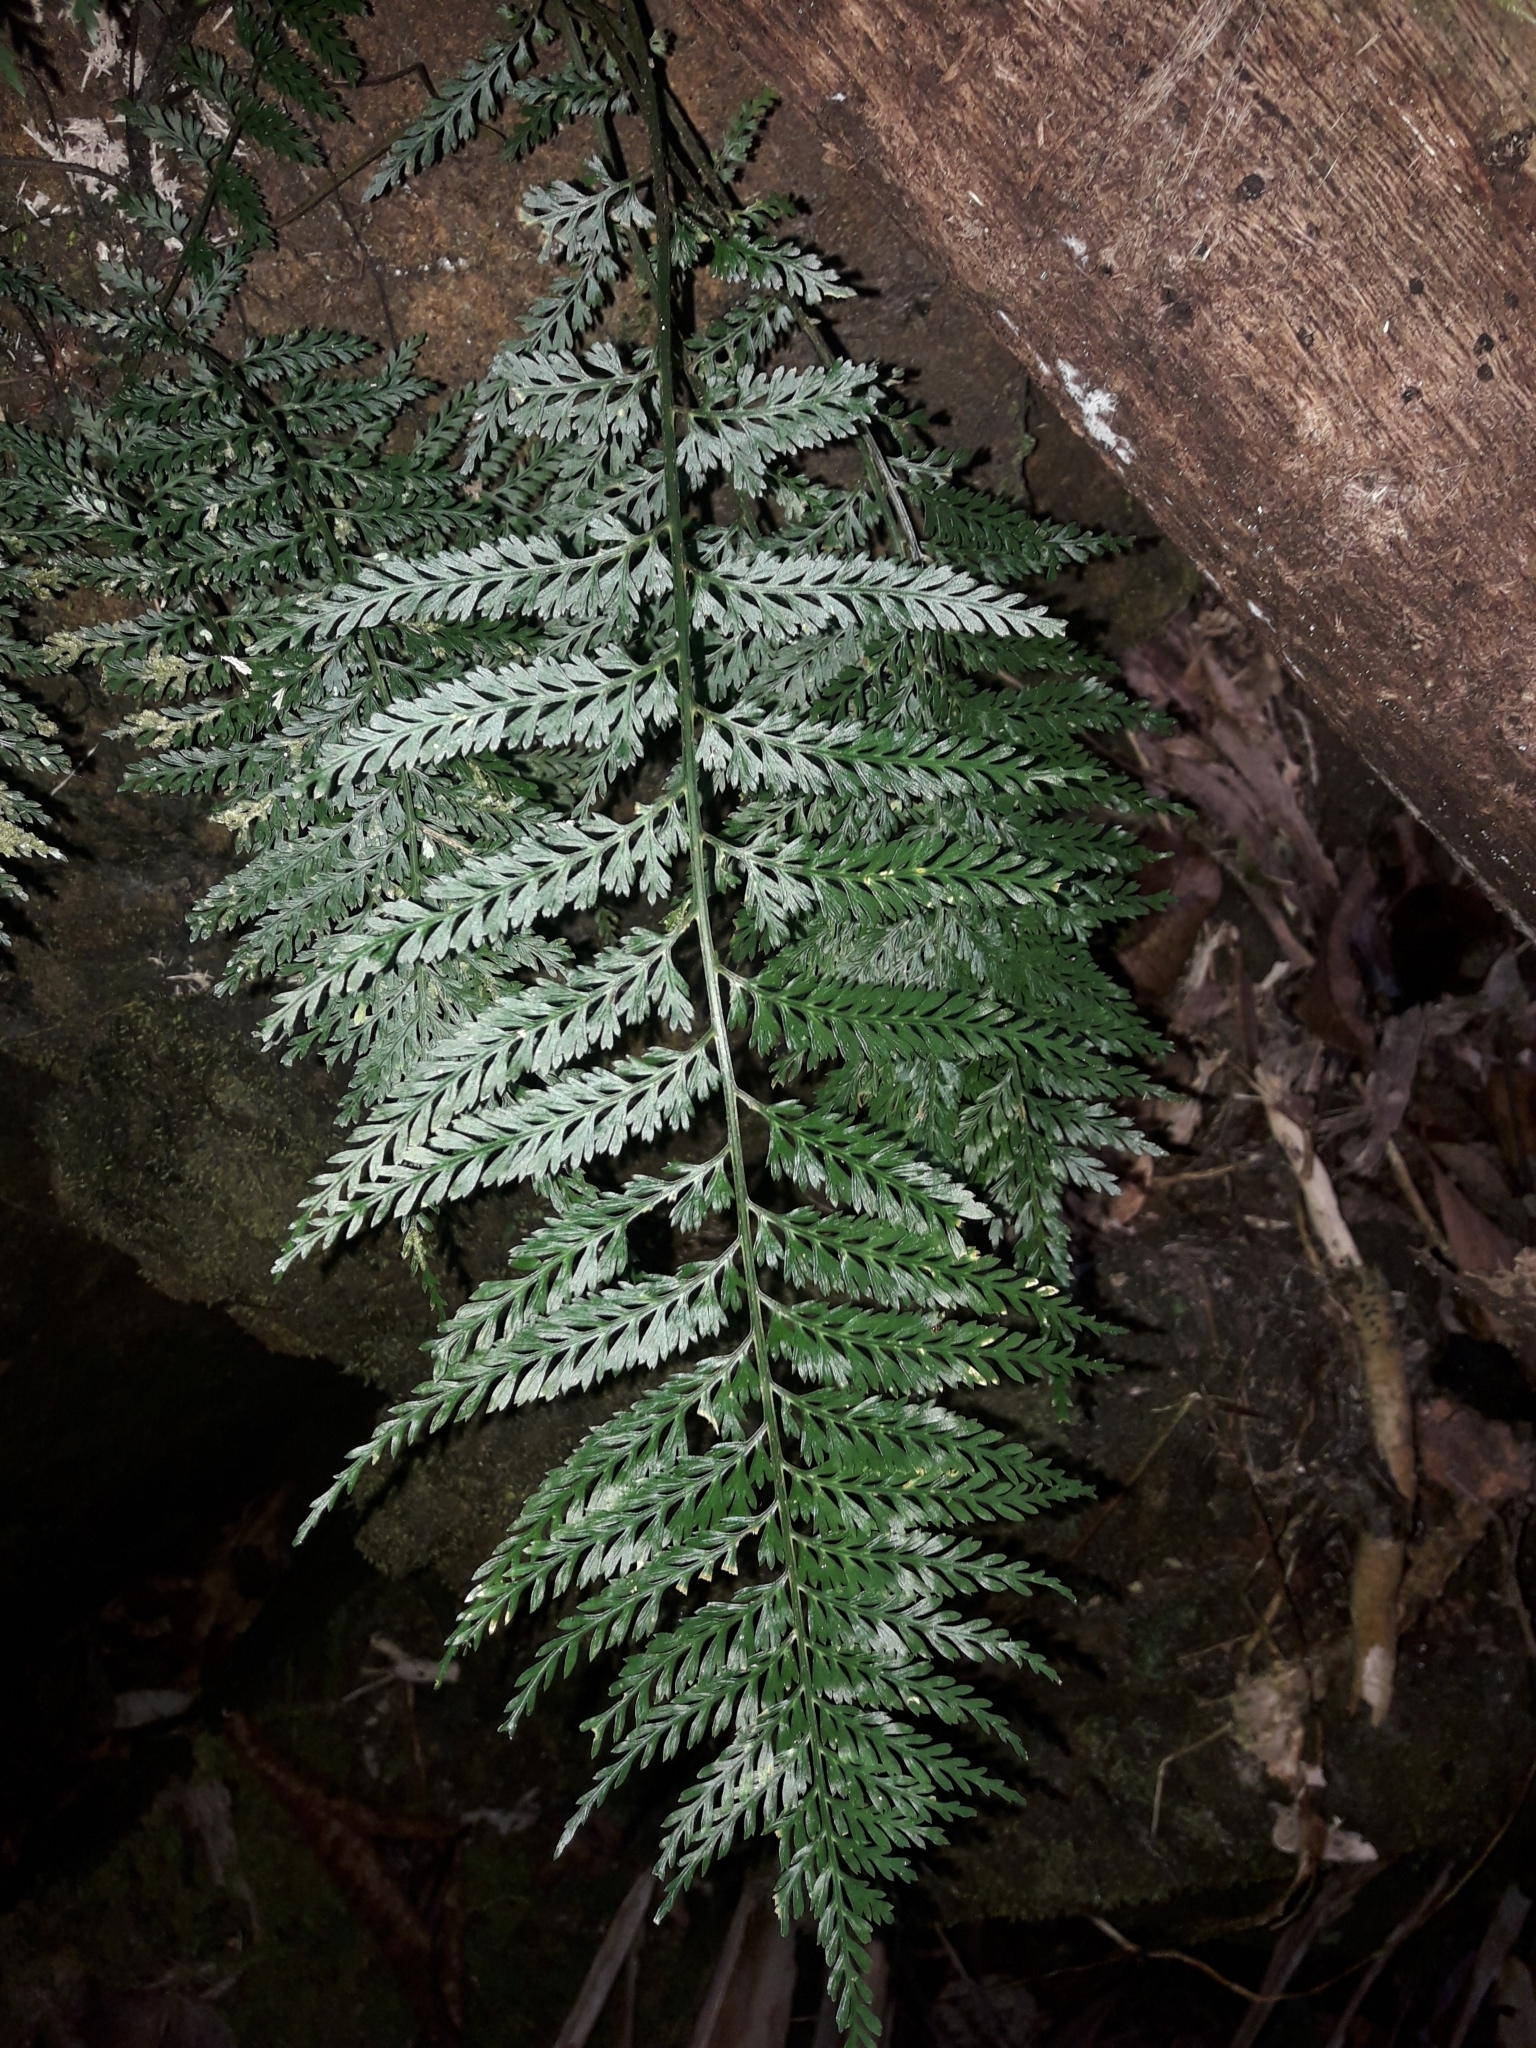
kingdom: Plantae
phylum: Tracheophyta
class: Polypodiopsida
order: Polypodiales
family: Aspleniaceae
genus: Asplenium
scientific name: Asplenium pteridoides
